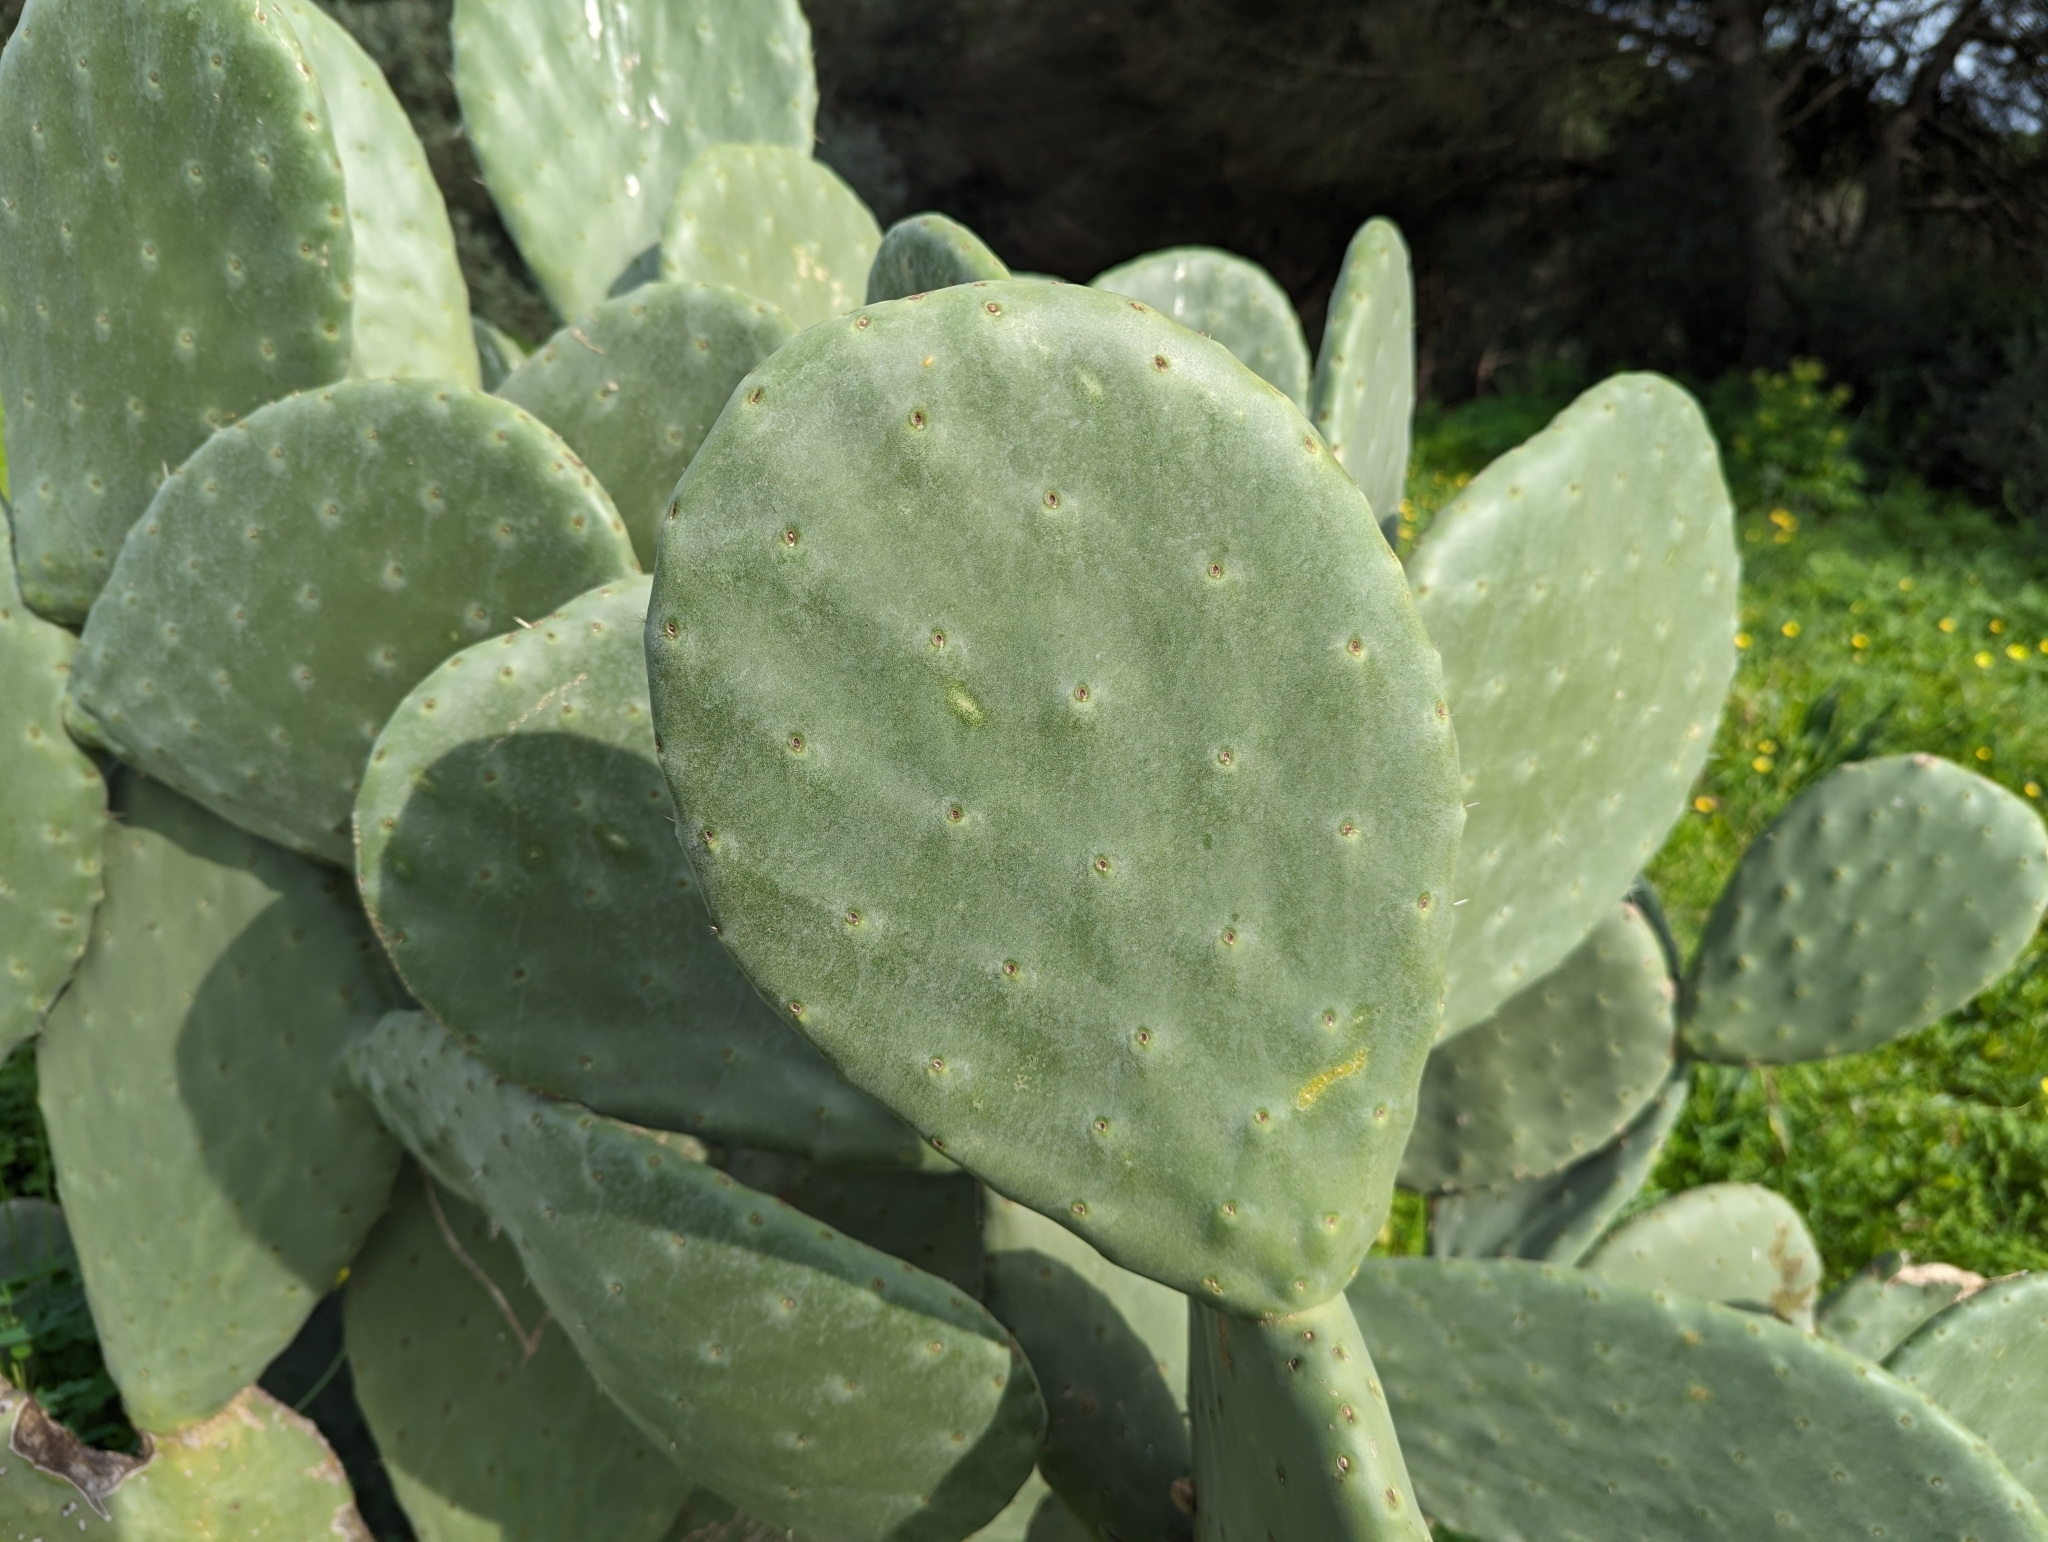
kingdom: Plantae
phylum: Tracheophyta
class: Magnoliopsida
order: Caryophyllales
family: Cactaceae
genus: Opuntia
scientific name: Opuntia ficus-indica
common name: Barbary fig
